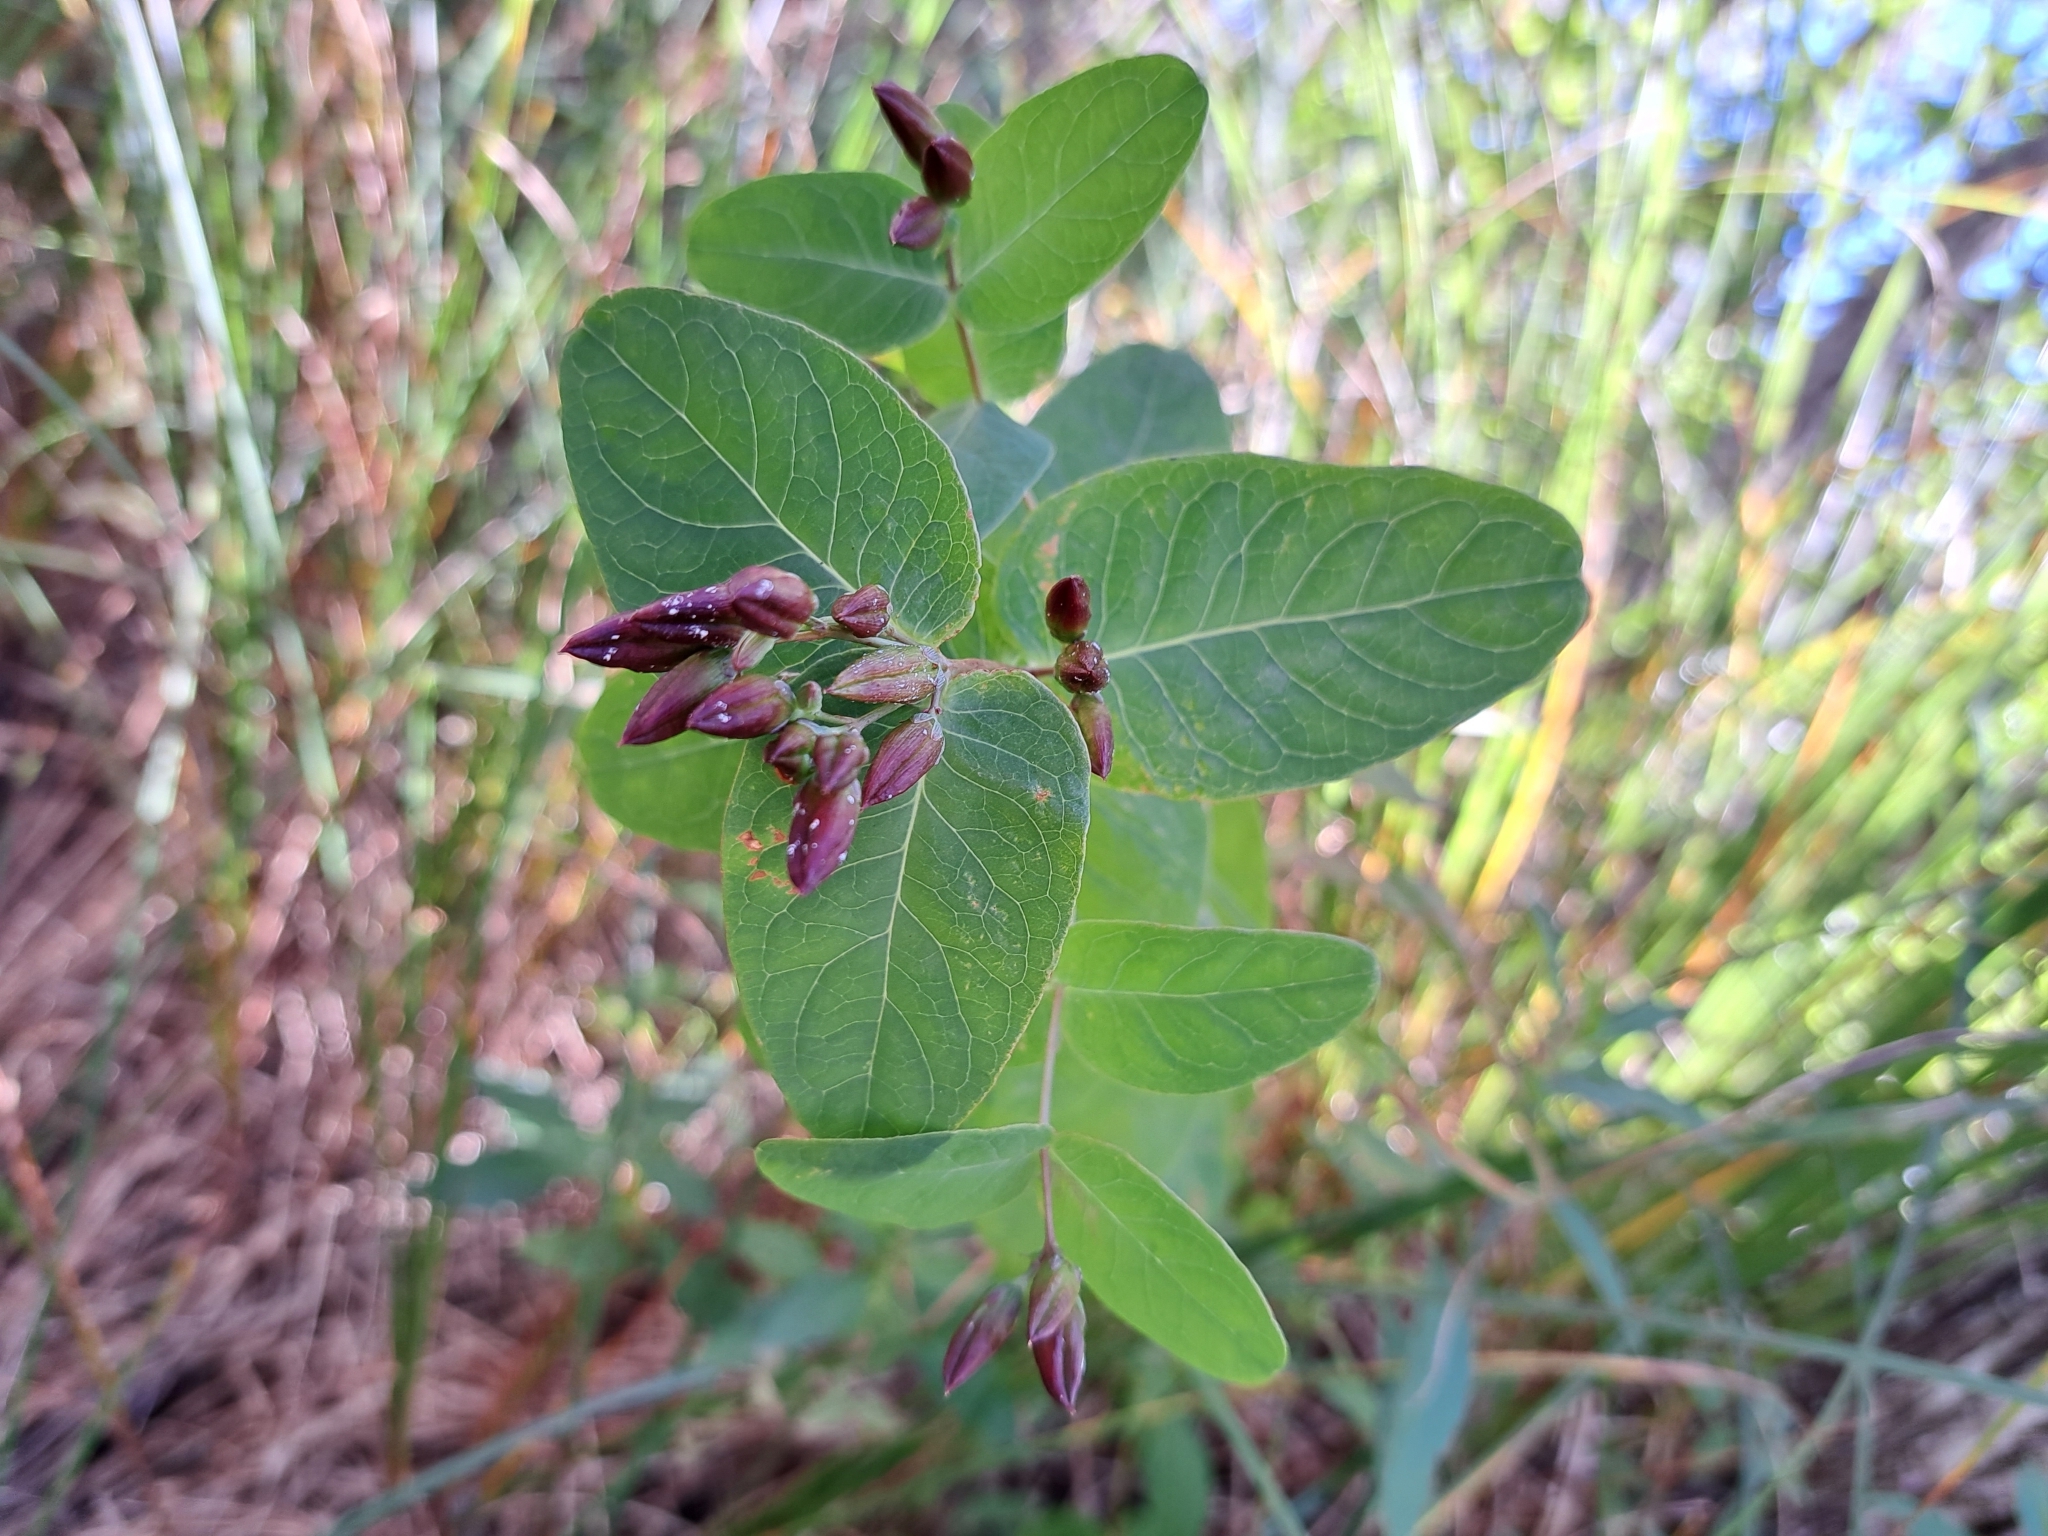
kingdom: Plantae
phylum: Tracheophyta
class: Magnoliopsida
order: Malpighiales
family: Hypericaceae
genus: Triadenum
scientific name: Triadenum fraseri
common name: Fraser's marsh st. johnswort
